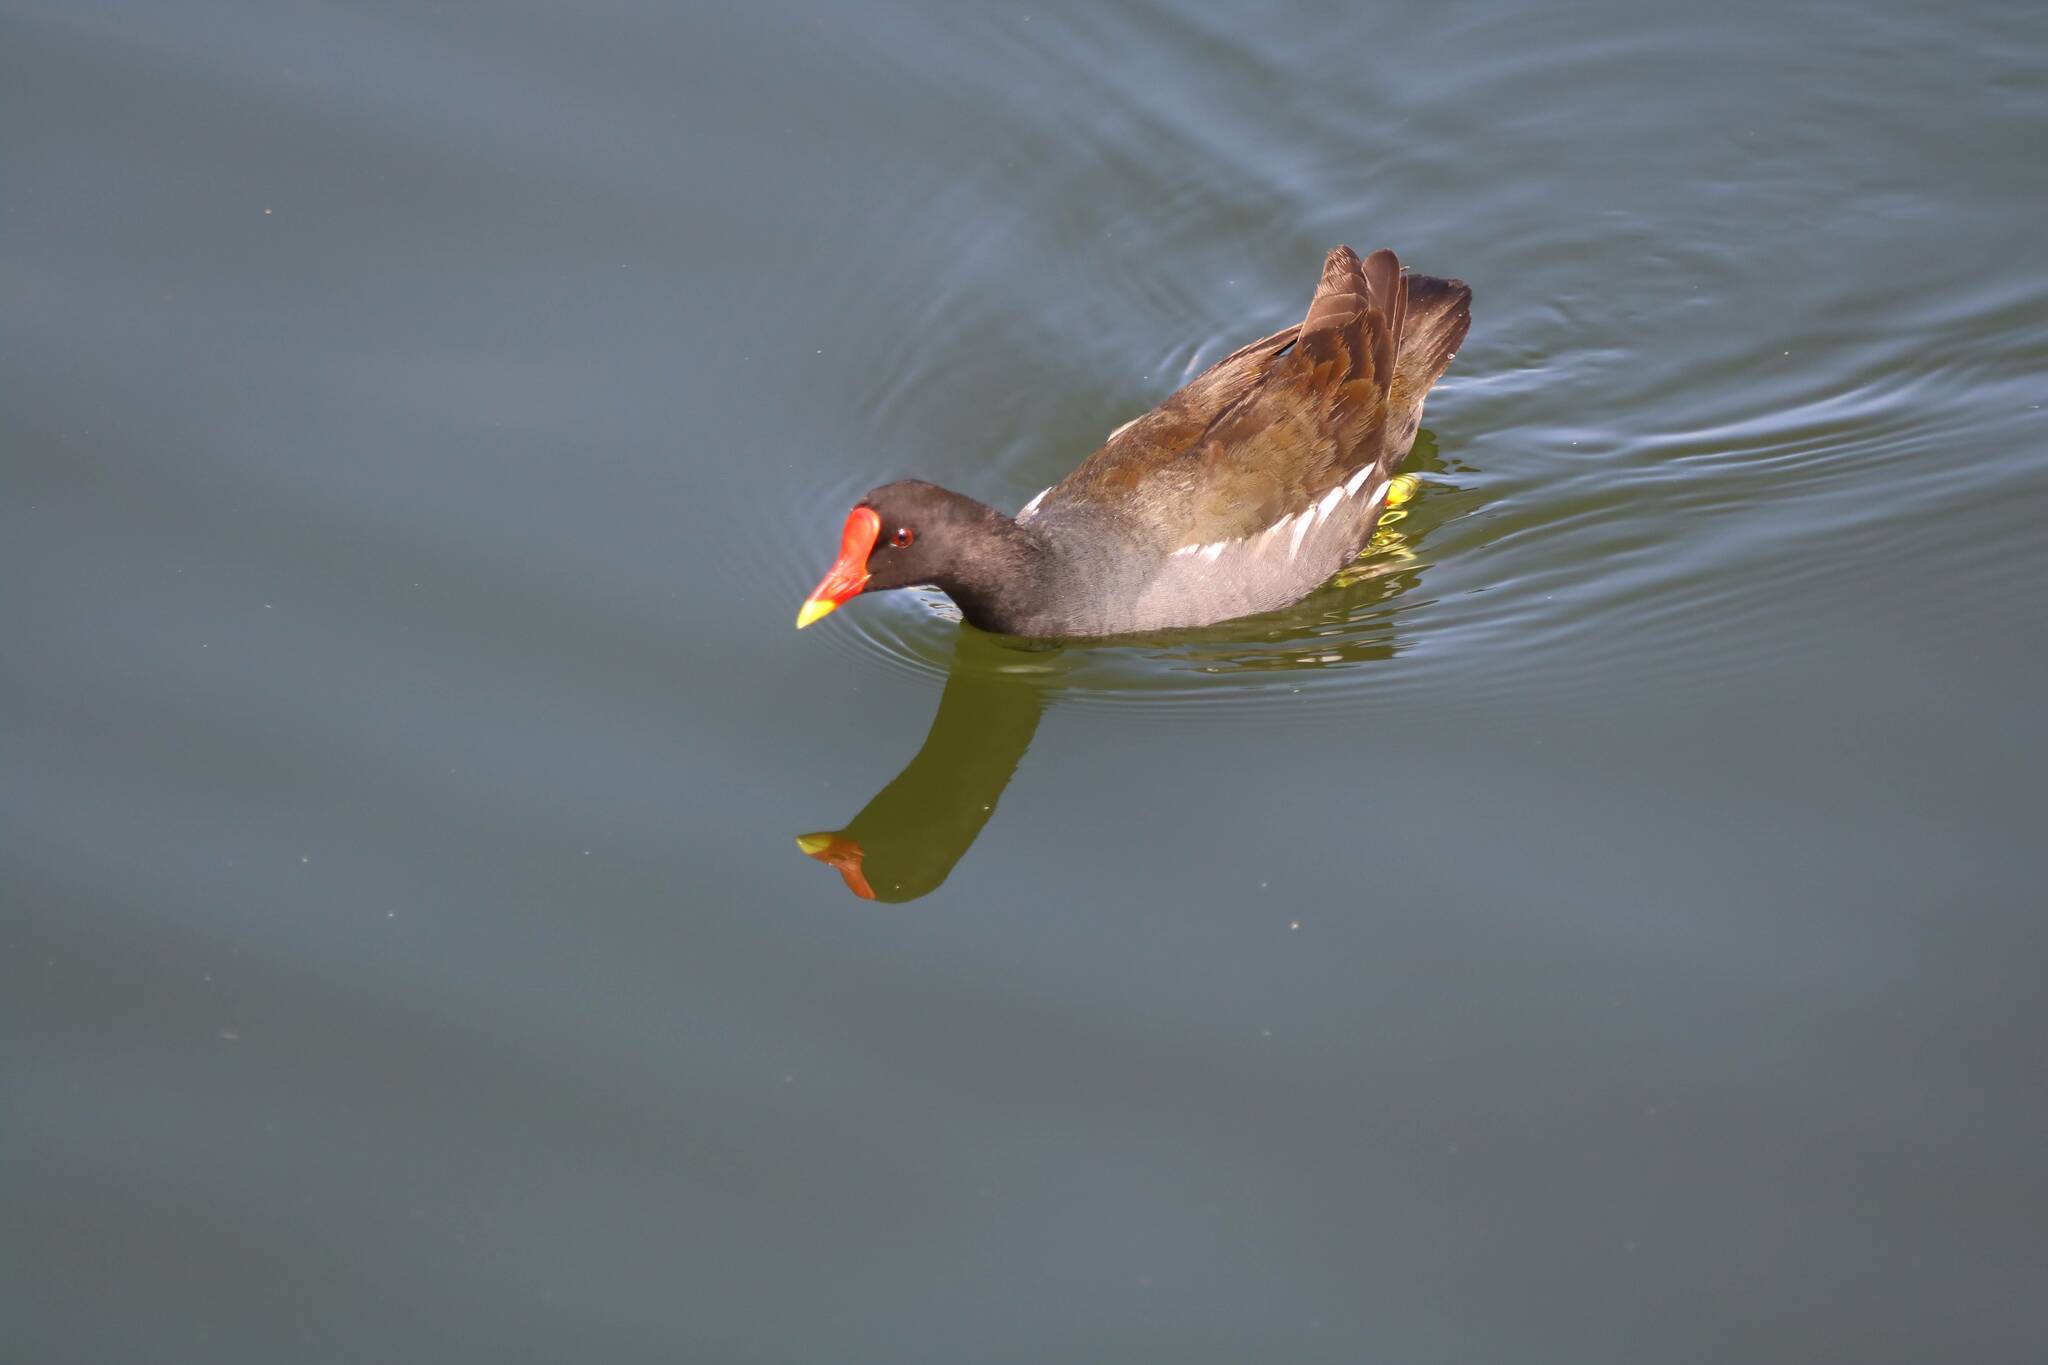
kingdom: Animalia
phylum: Chordata
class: Aves
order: Gruiformes
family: Rallidae
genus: Gallinula
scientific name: Gallinula chloropus
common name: Common moorhen
